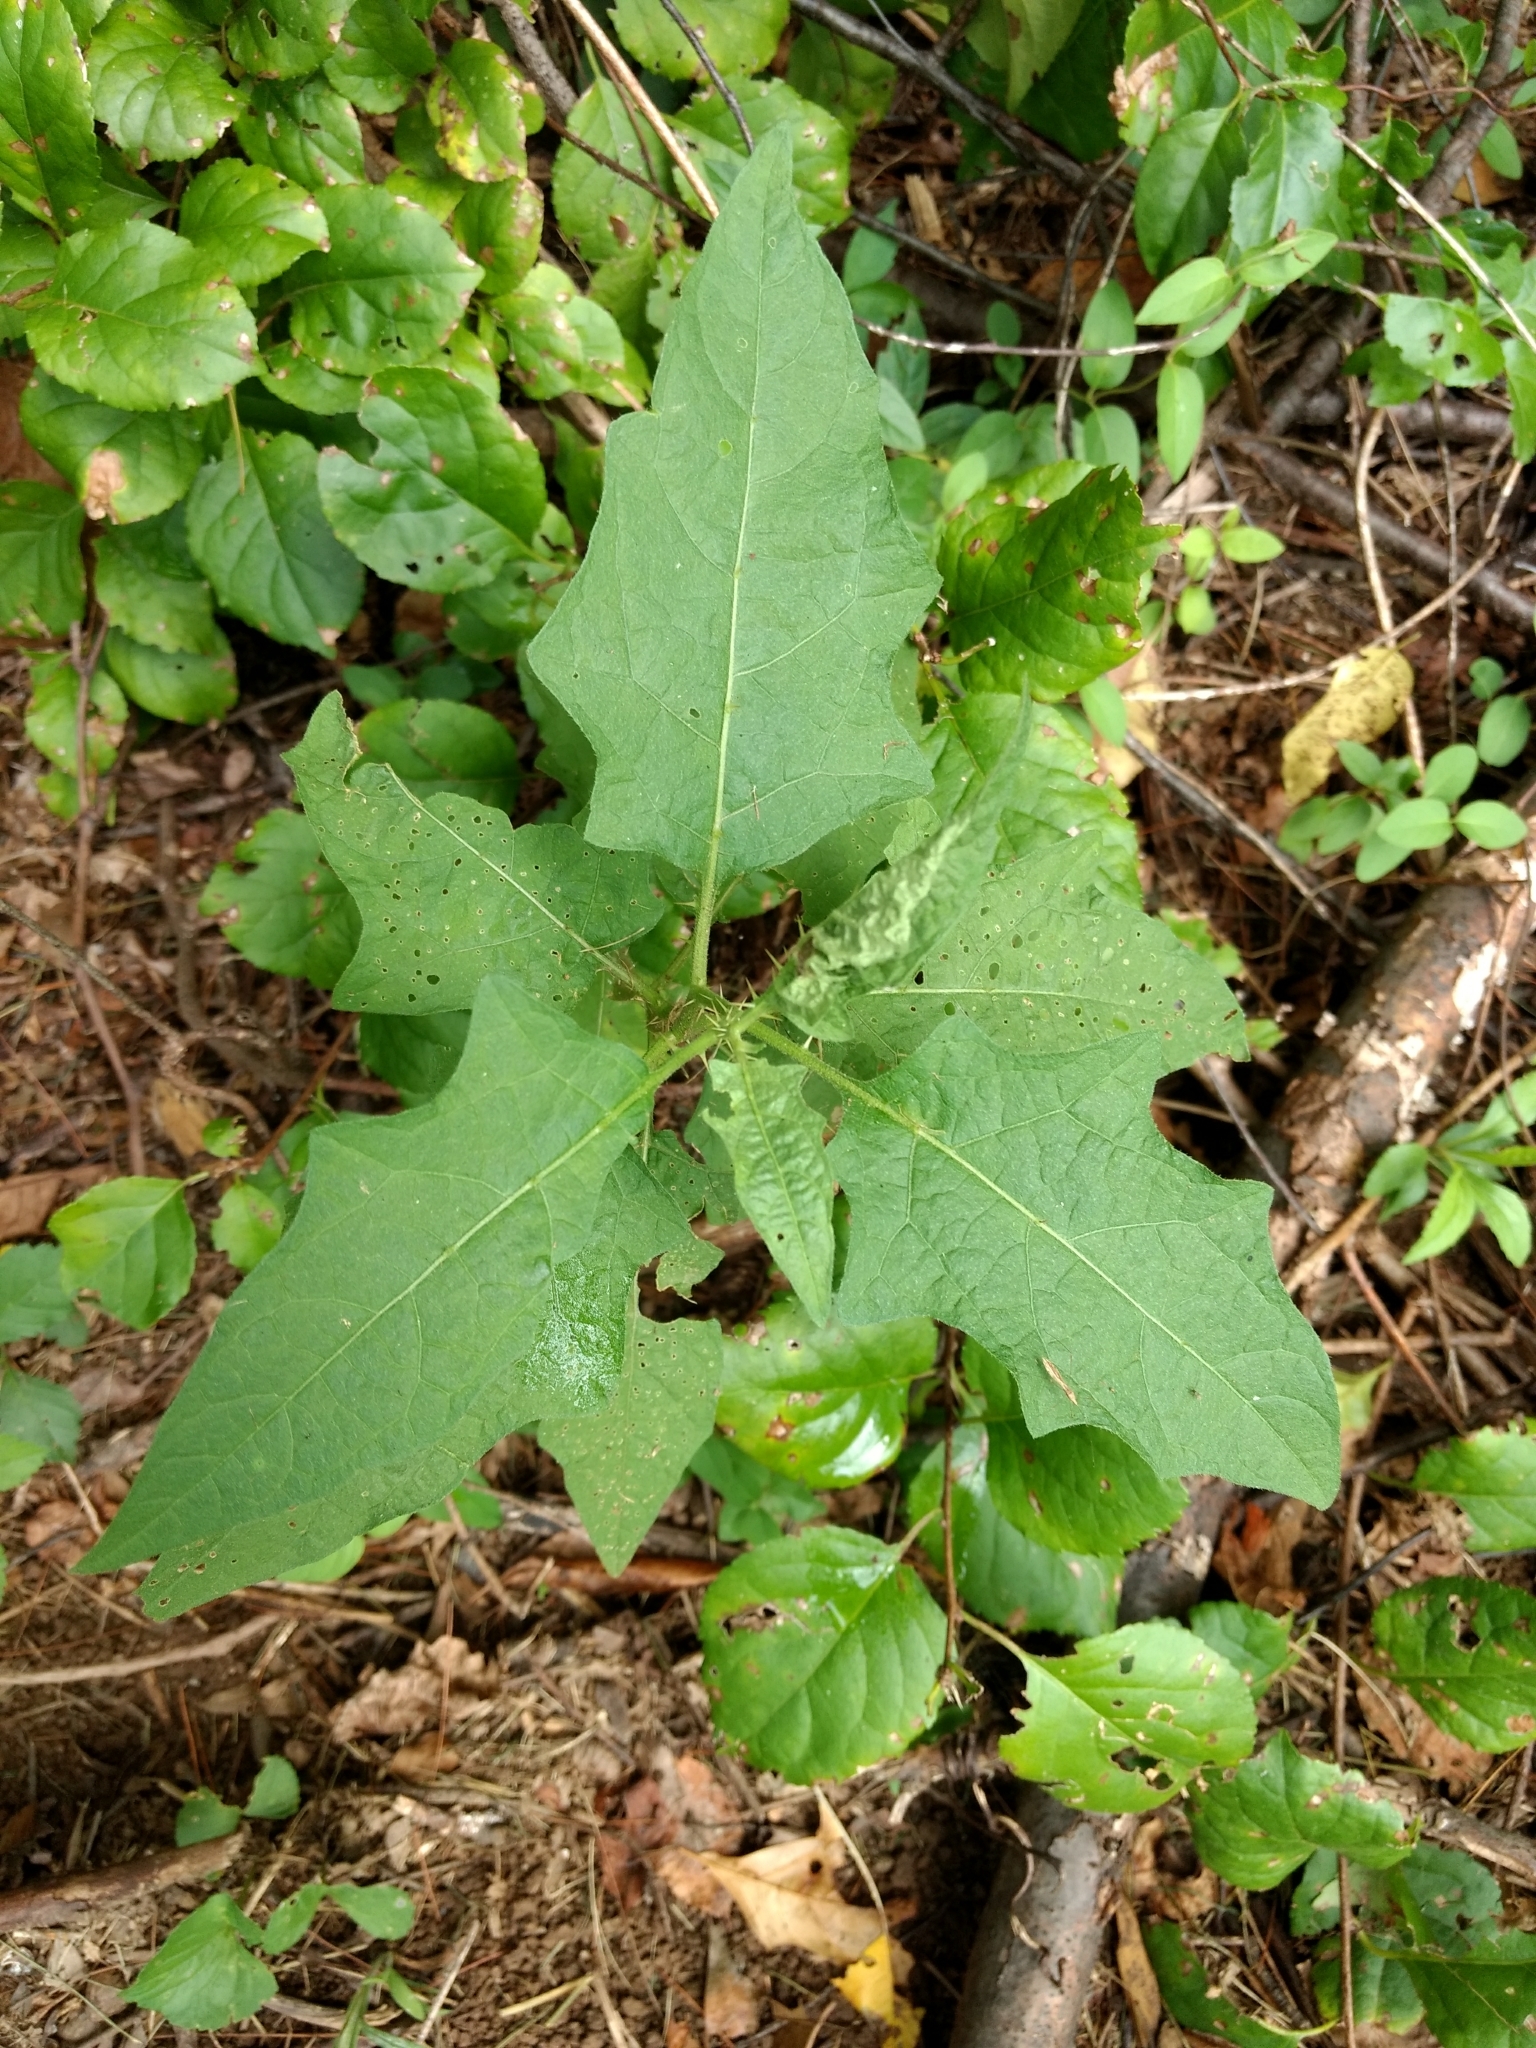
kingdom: Plantae
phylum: Tracheophyta
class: Magnoliopsida
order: Solanales
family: Solanaceae
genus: Solanum
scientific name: Solanum carolinense
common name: Horse-nettle
